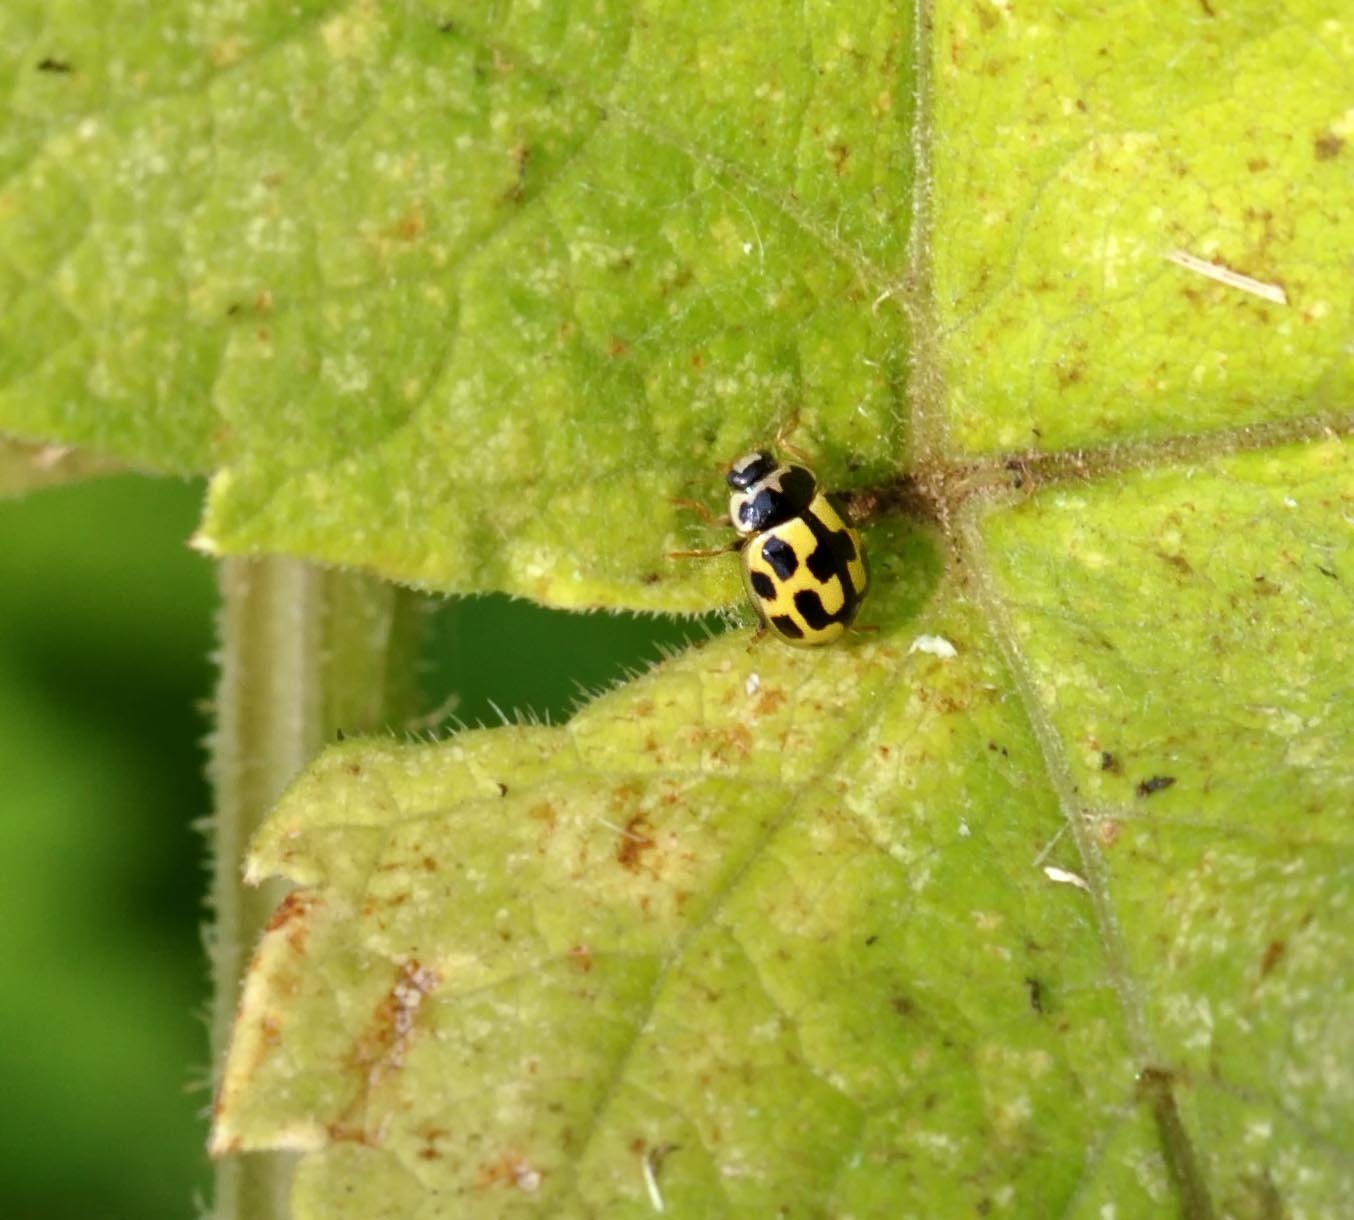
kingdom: Animalia
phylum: Arthropoda
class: Insecta
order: Coleoptera
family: Coccinellidae
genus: Propylaea
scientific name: Propylaea quatuordecimpunctata
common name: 14-spotted ladybird beetle
